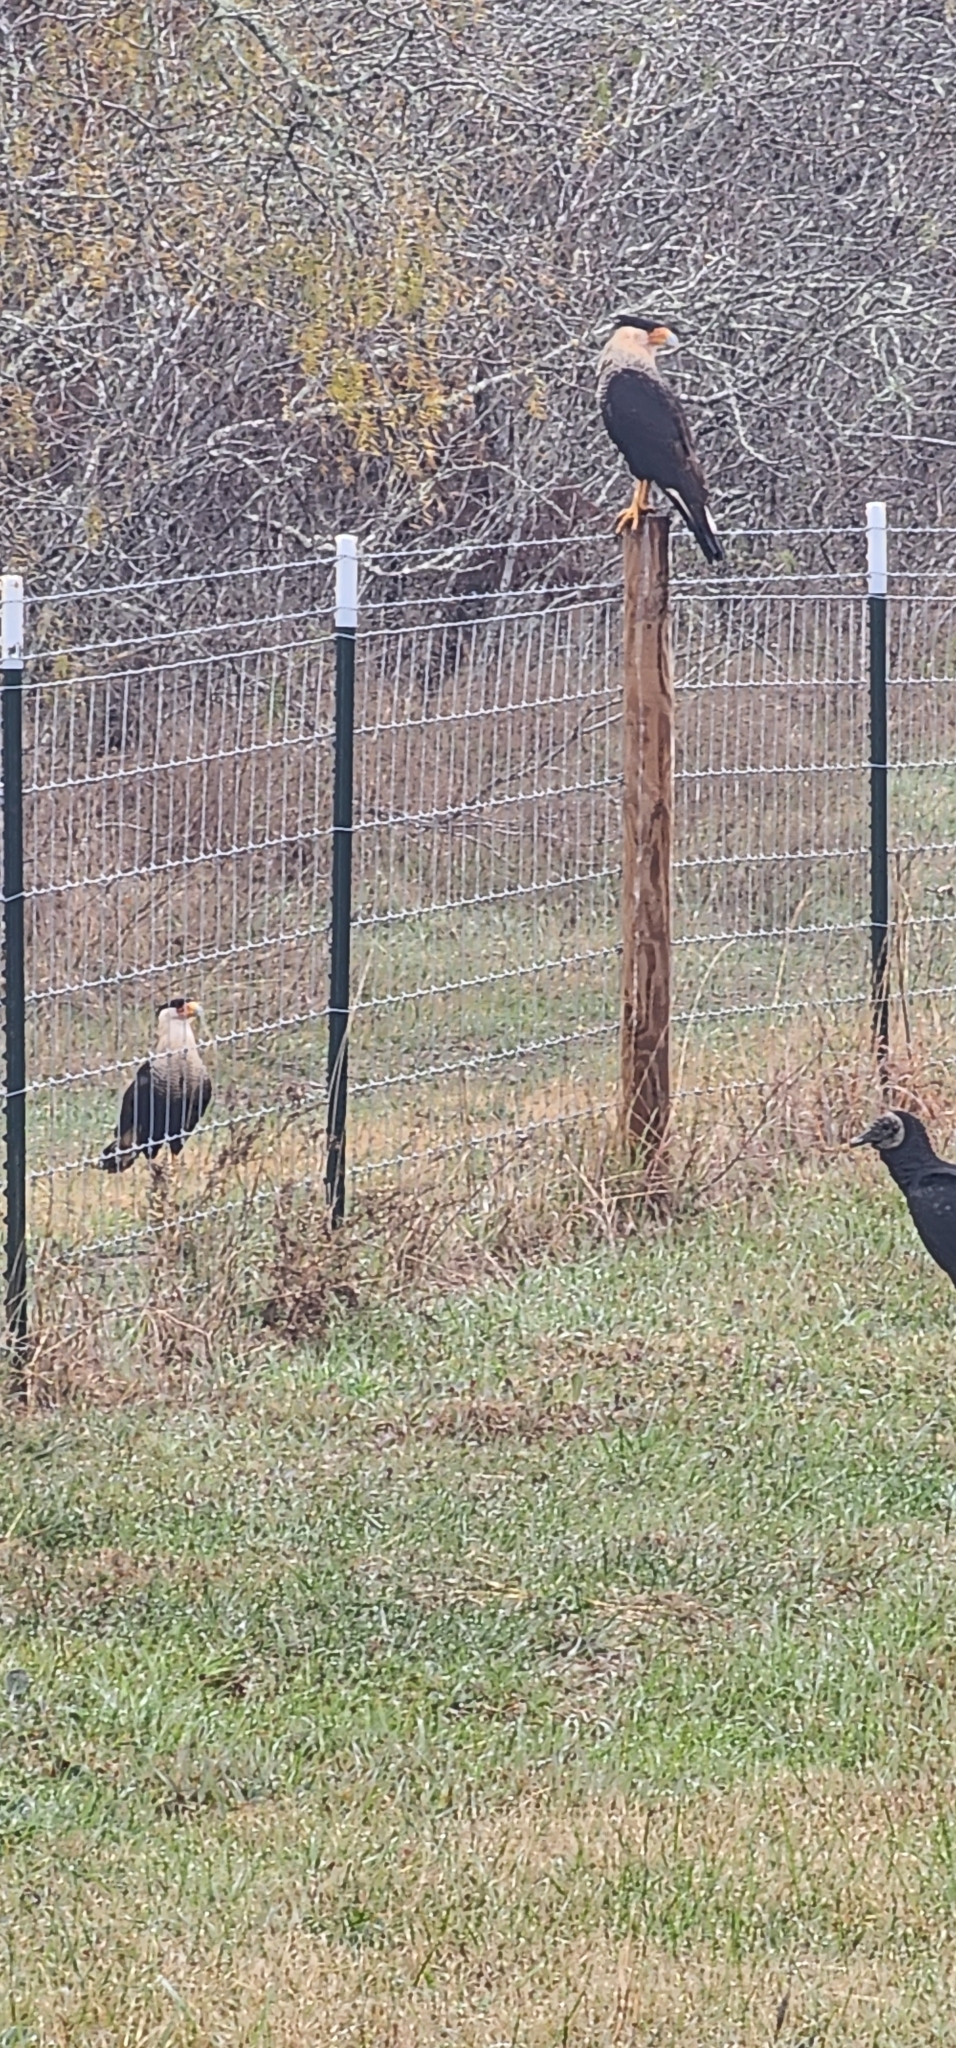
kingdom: Animalia
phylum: Chordata
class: Aves
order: Falconiformes
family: Falconidae
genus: Caracara
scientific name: Caracara plancus
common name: Southern caracara
